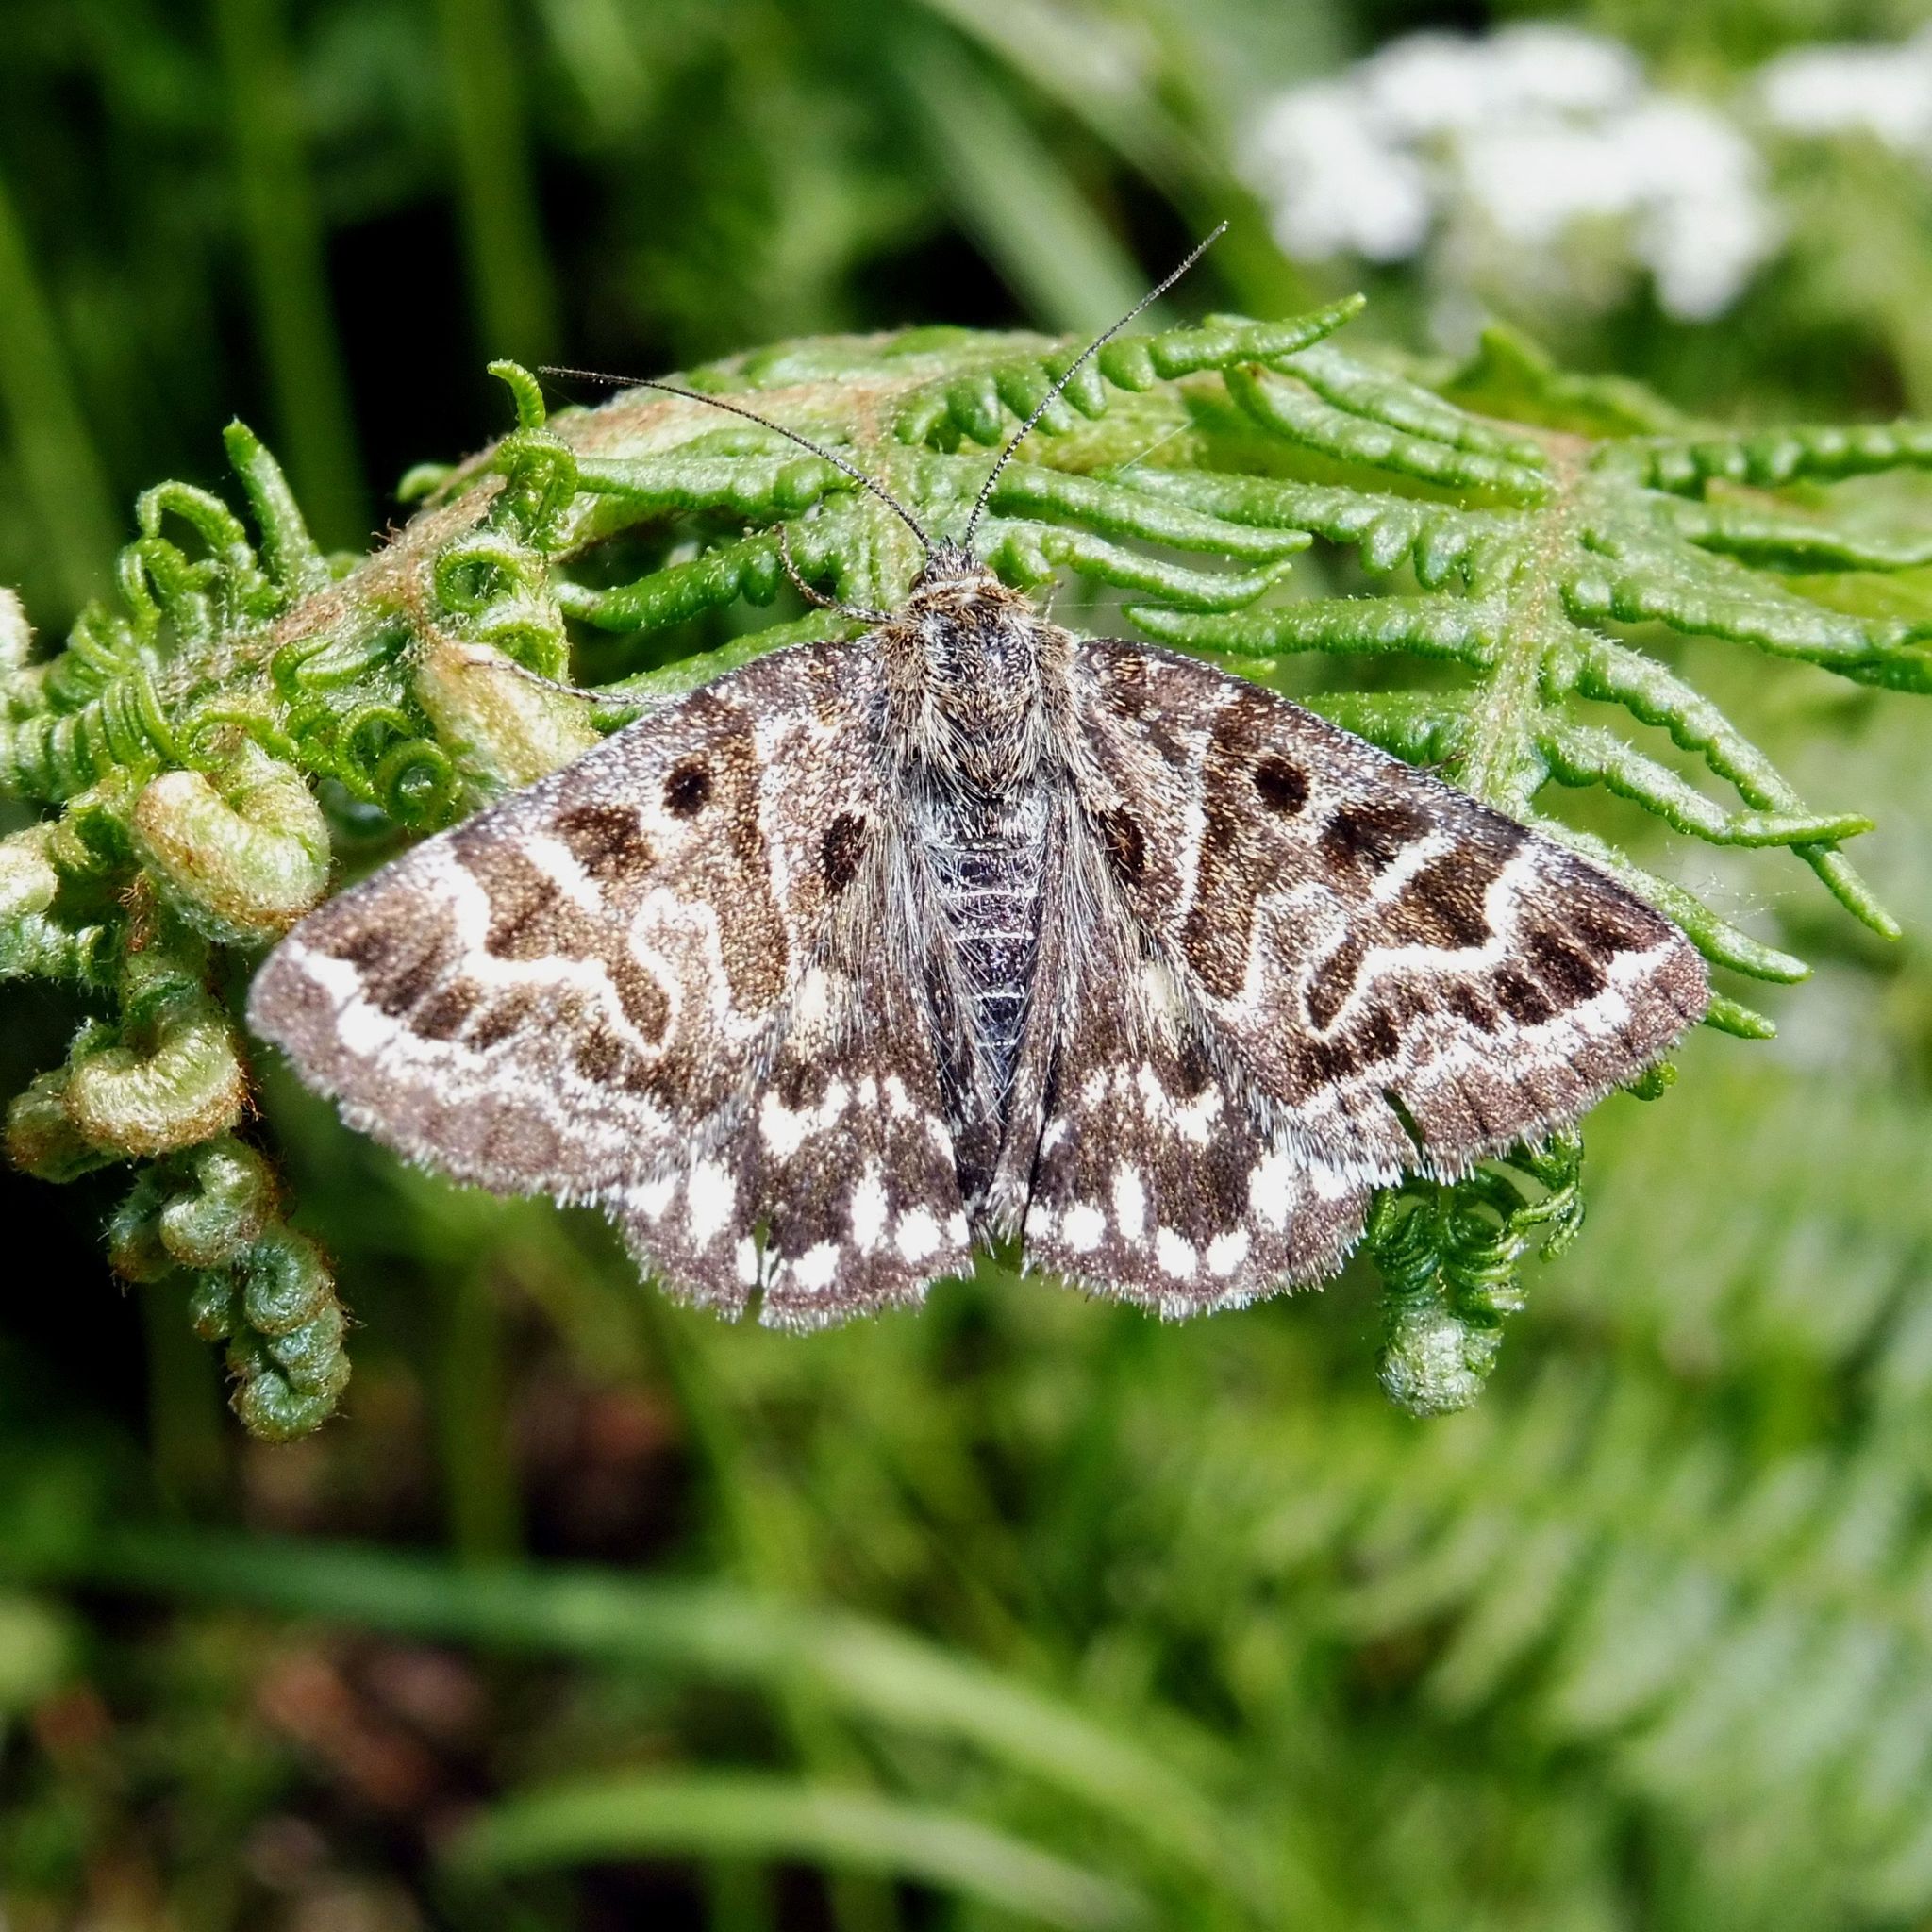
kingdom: Animalia
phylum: Arthropoda
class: Insecta
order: Lepidoptera
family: Erebidae
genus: Callistege
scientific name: Callistege mi
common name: Mother shipton
